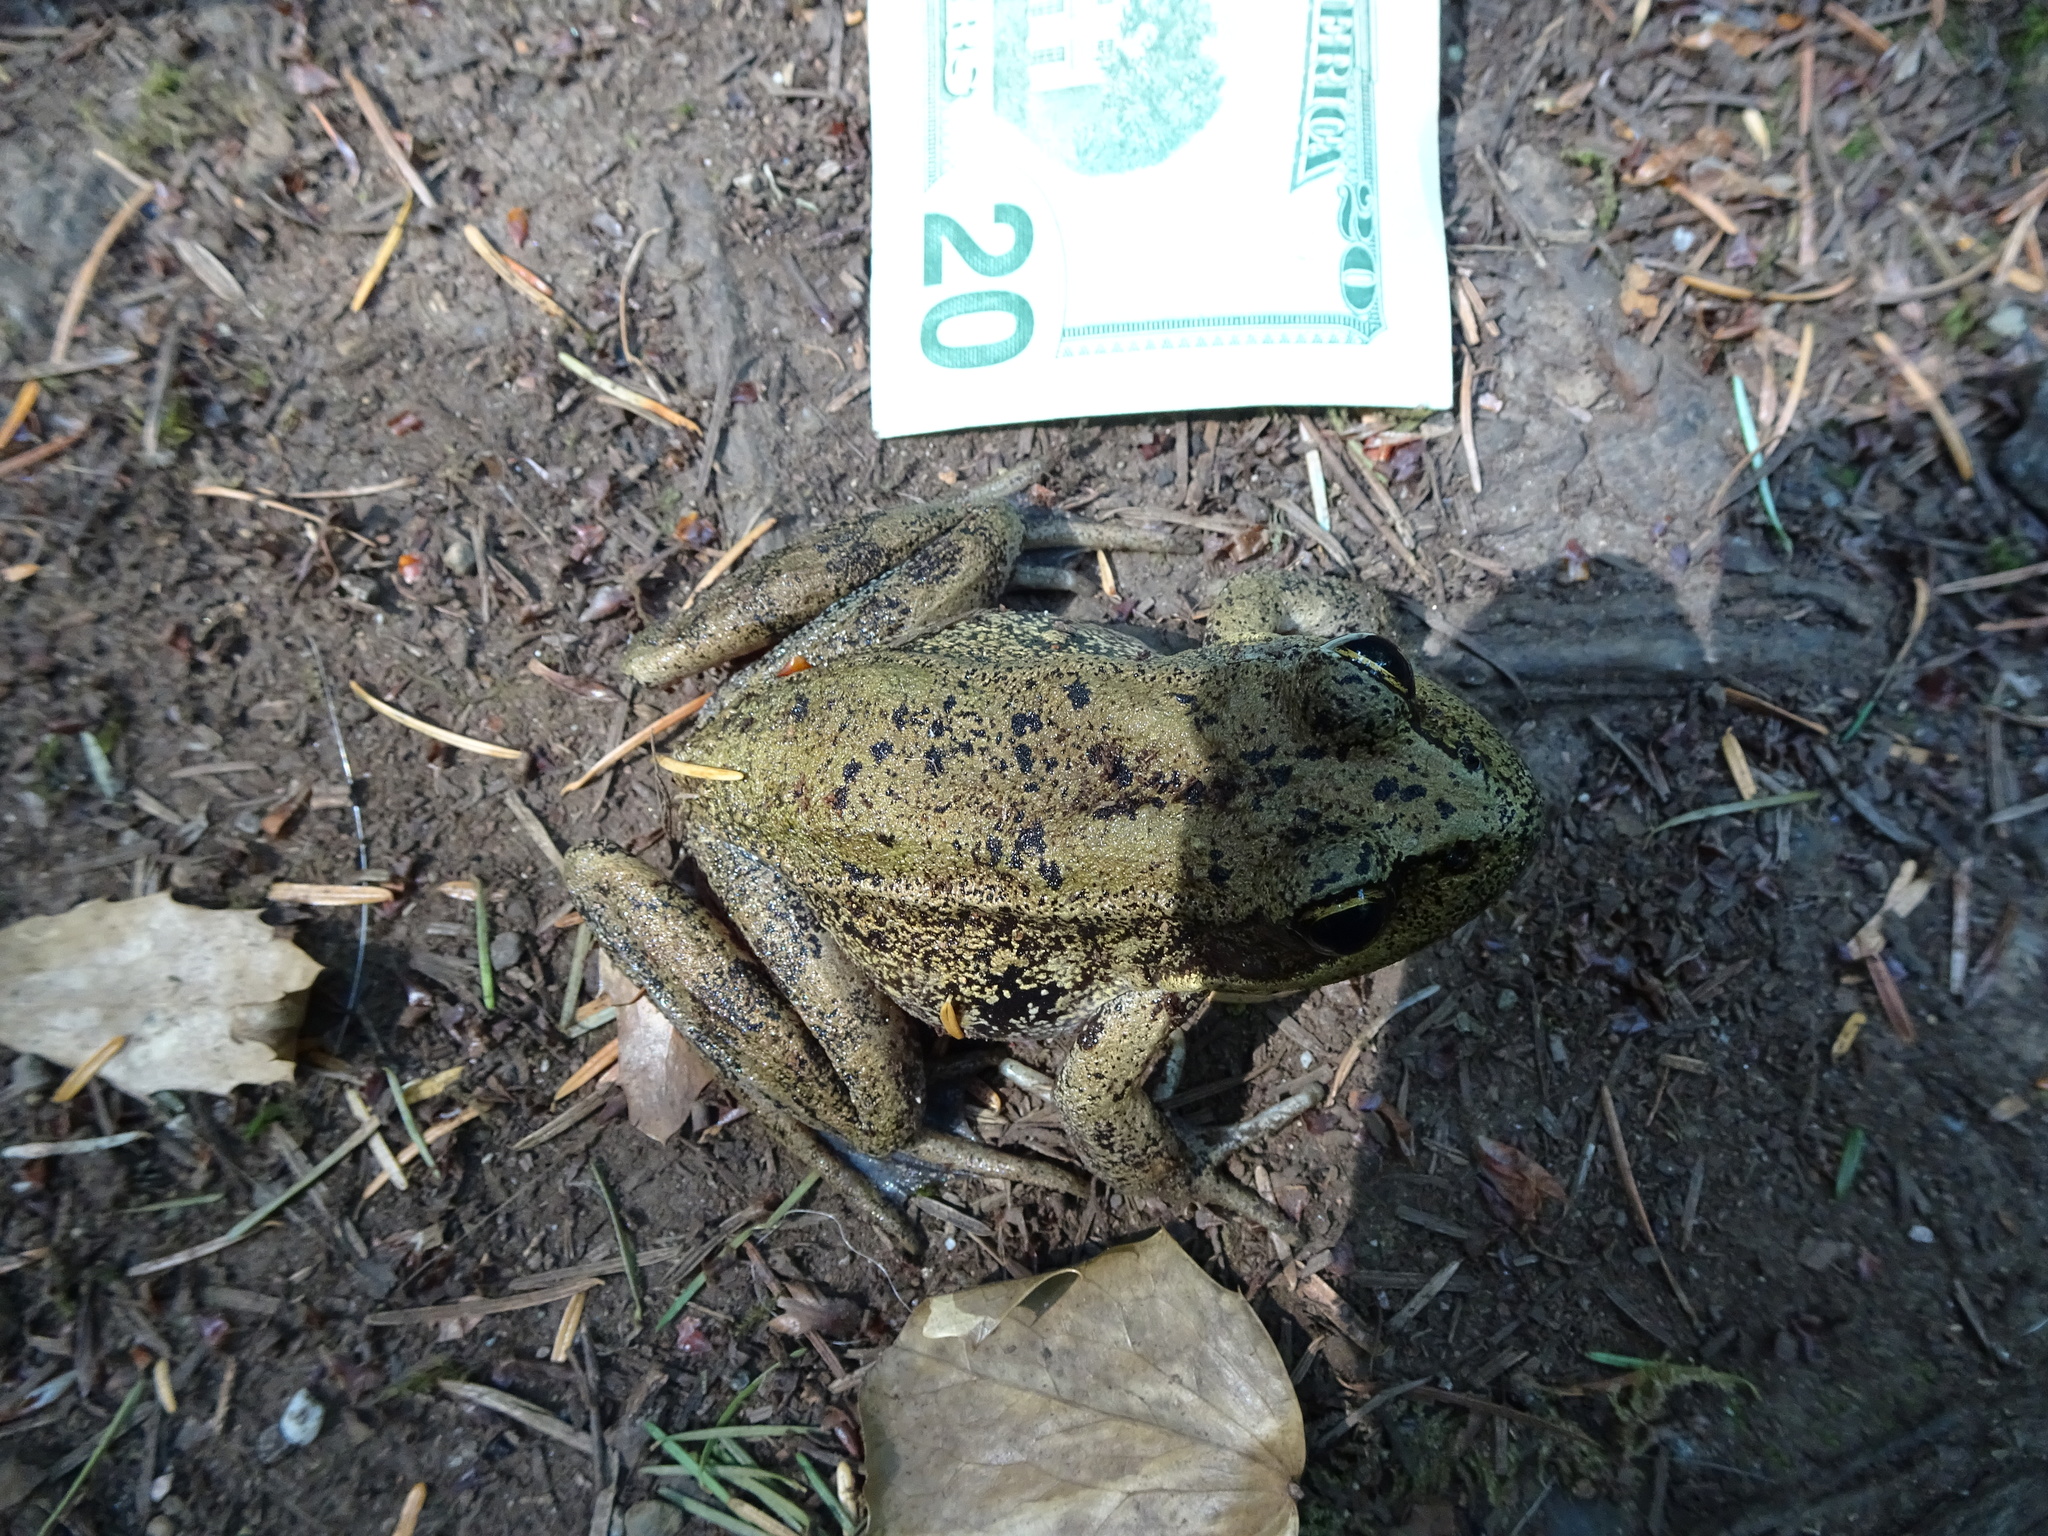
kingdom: Animalia
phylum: Chordata
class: Amphibia
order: Anura
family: Ranidae
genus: Rana
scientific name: Rana aurora
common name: Red-legged frog
